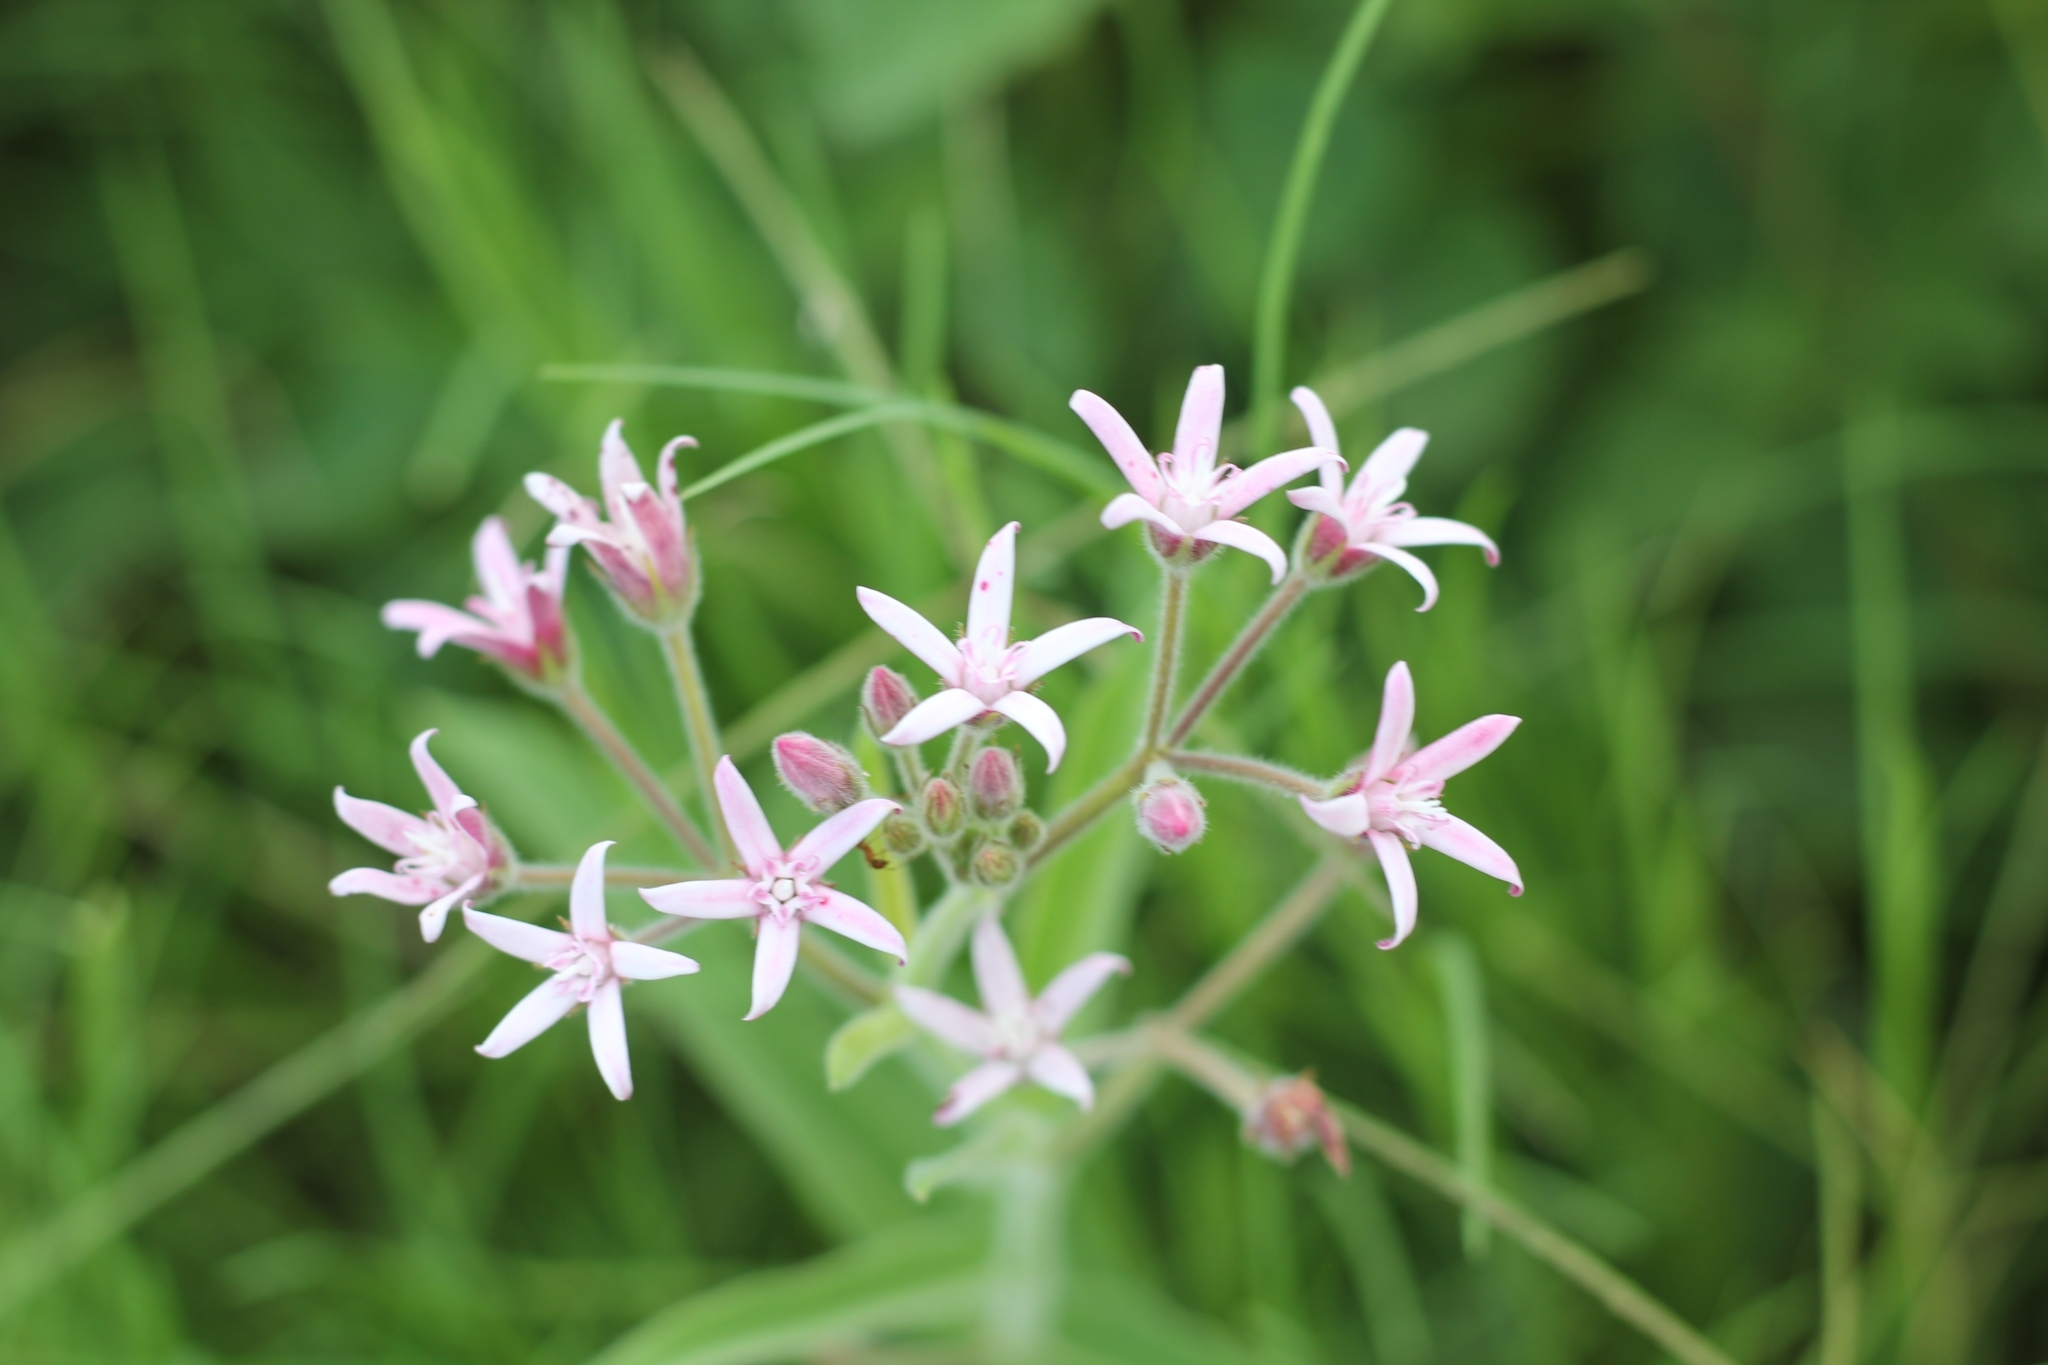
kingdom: Plantae
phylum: Tracheophyta
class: Magnoliopsida
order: Gentianales
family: Apocynaceae
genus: Oxypetalum
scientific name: Oxypetalum solanoides
